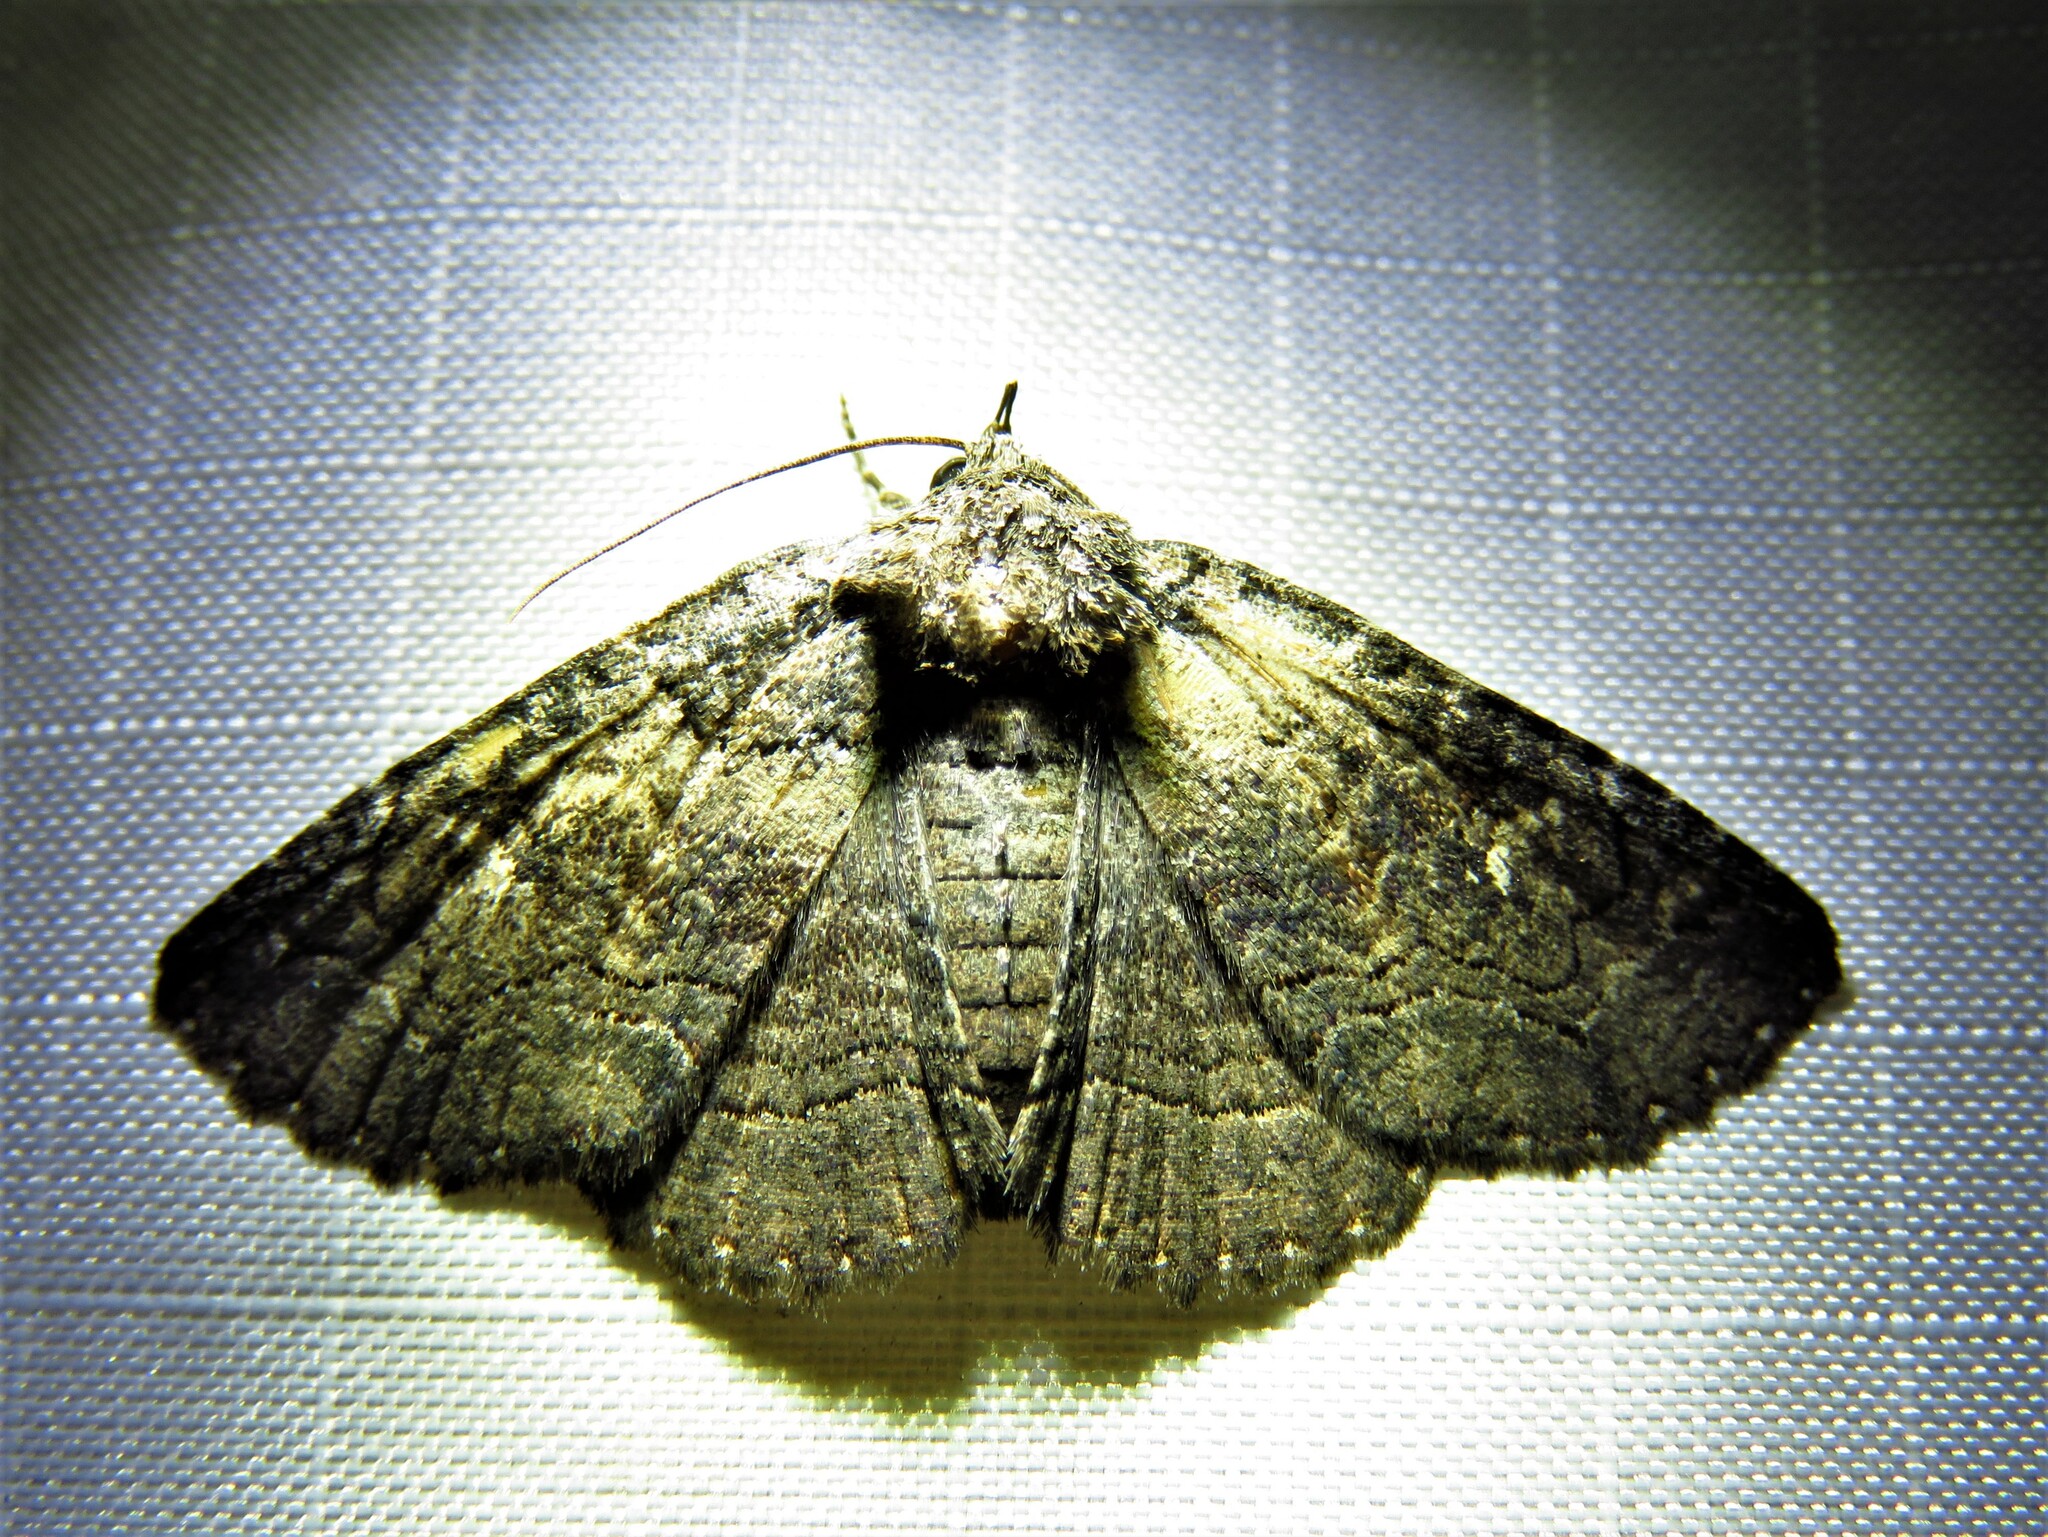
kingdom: Animalia
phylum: Arthropoda
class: Insecta
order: Lepidoptera
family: Erebidae
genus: Zale
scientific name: Zale edusina
